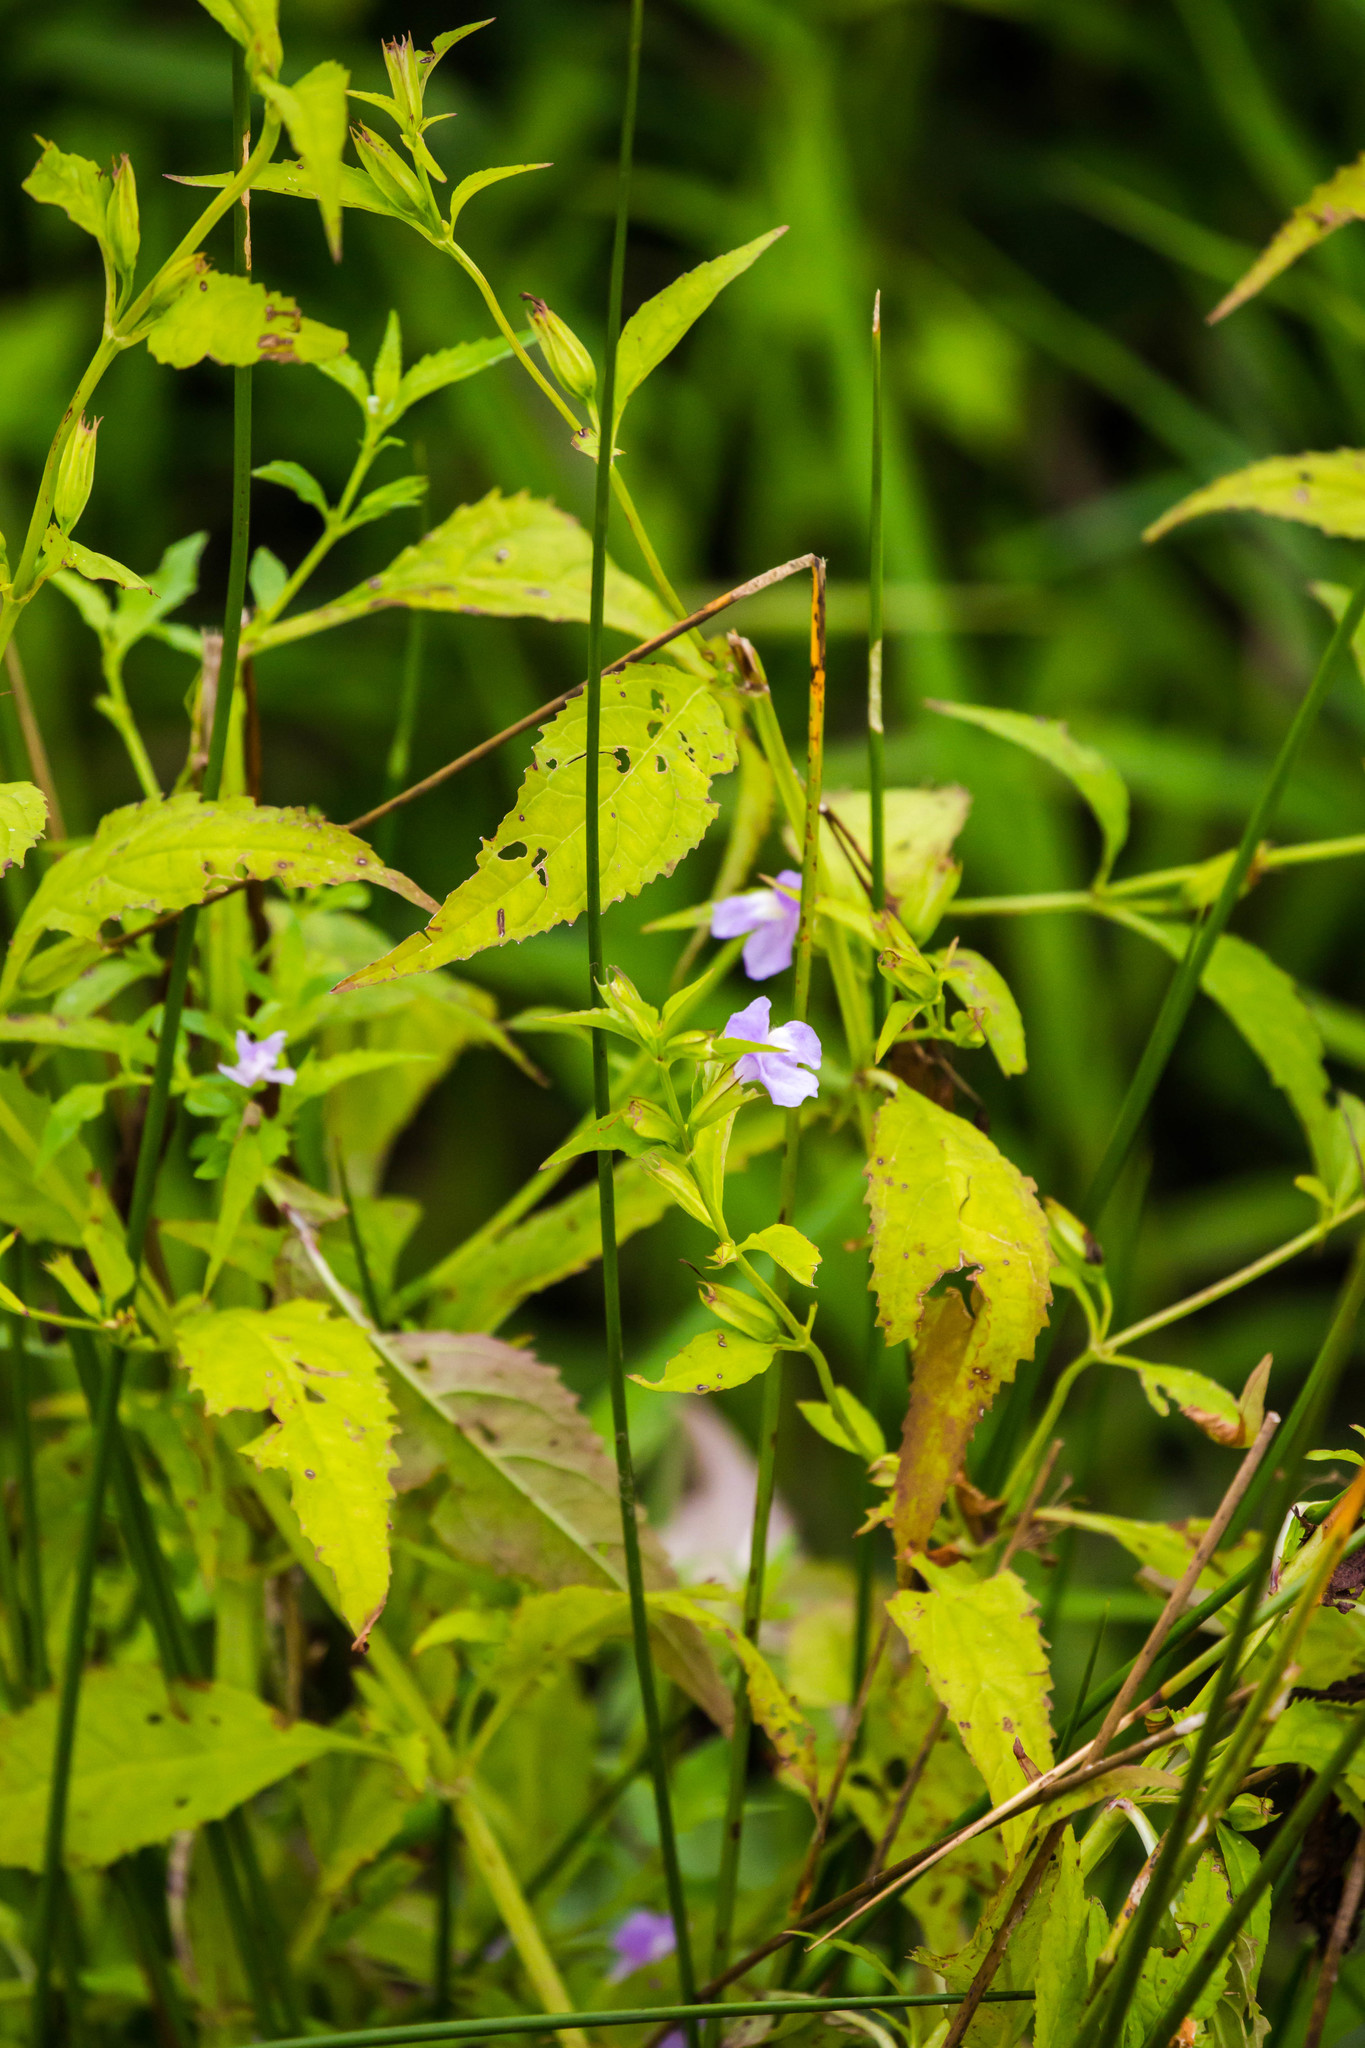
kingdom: Plantae
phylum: Tracheophyta
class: Magnoliopsida
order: Lamiales
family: Phrymaceae
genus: Mimulus
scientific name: Mimulus alatus
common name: Sharp-wing monkey-flower
